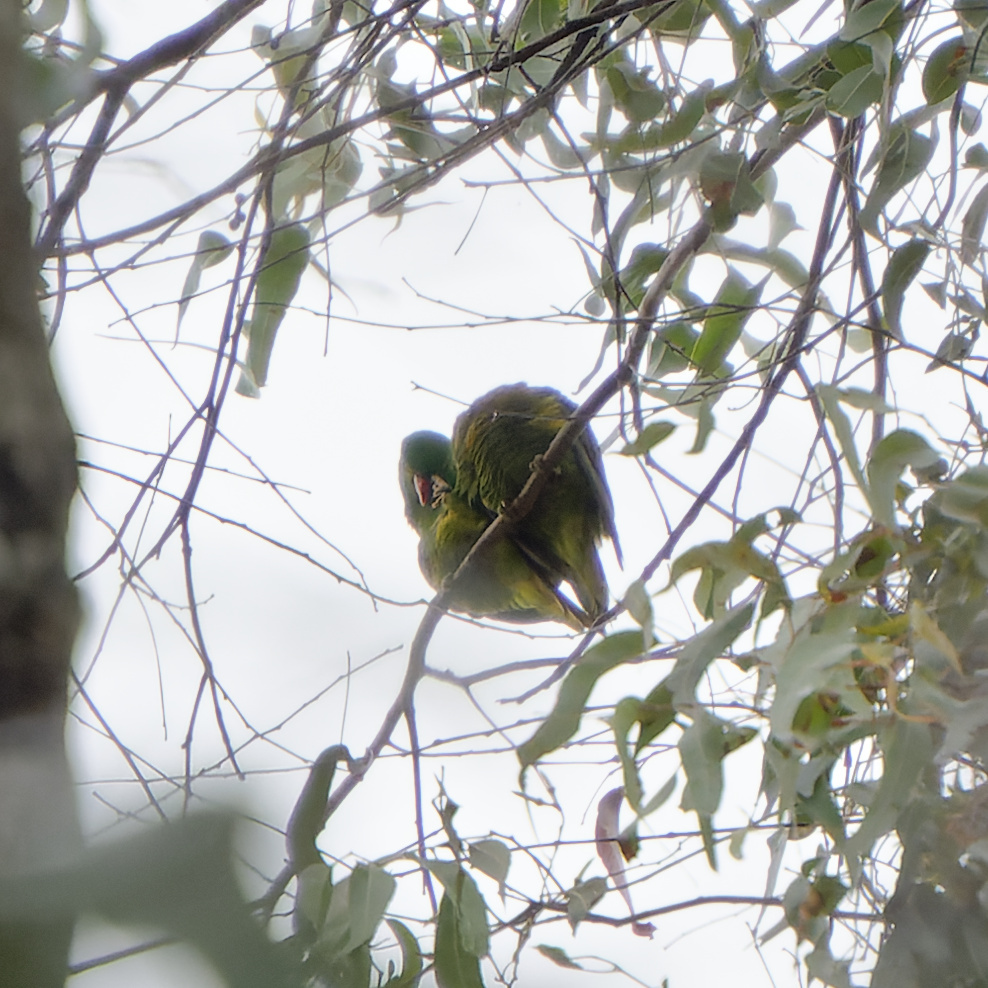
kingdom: Animalia
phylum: Chordata
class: Aves
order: Psittaciformes
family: Psittacidae
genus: Trichoglossus
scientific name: Trichoglossus chlorolepidotus
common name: Scaly-breasted lorikeet
